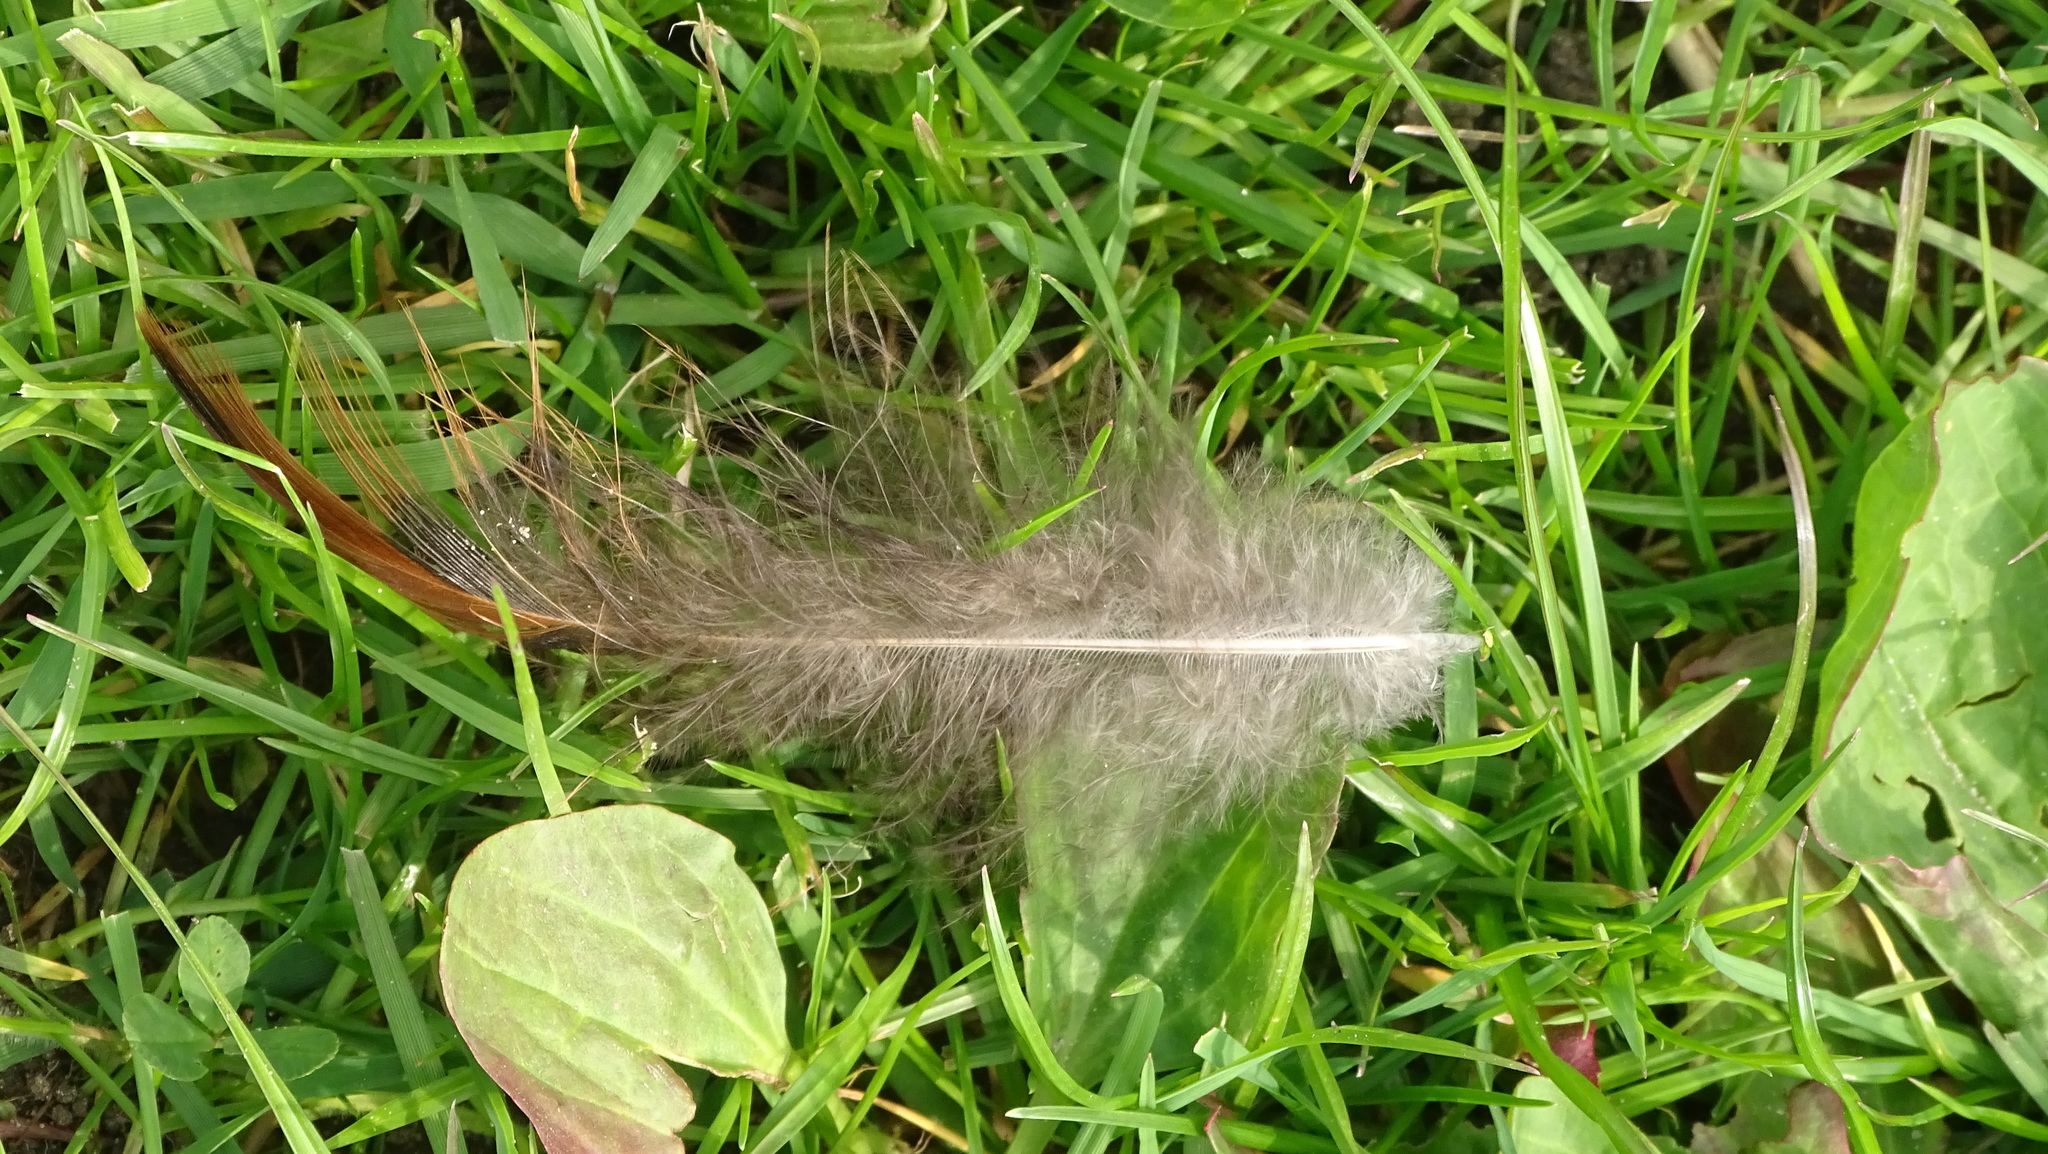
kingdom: Animalia
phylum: Chordata
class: Aves
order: Galliformes
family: Phasianidae
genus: Phasianus
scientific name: Phasianus colchicus
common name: Common pheasant
